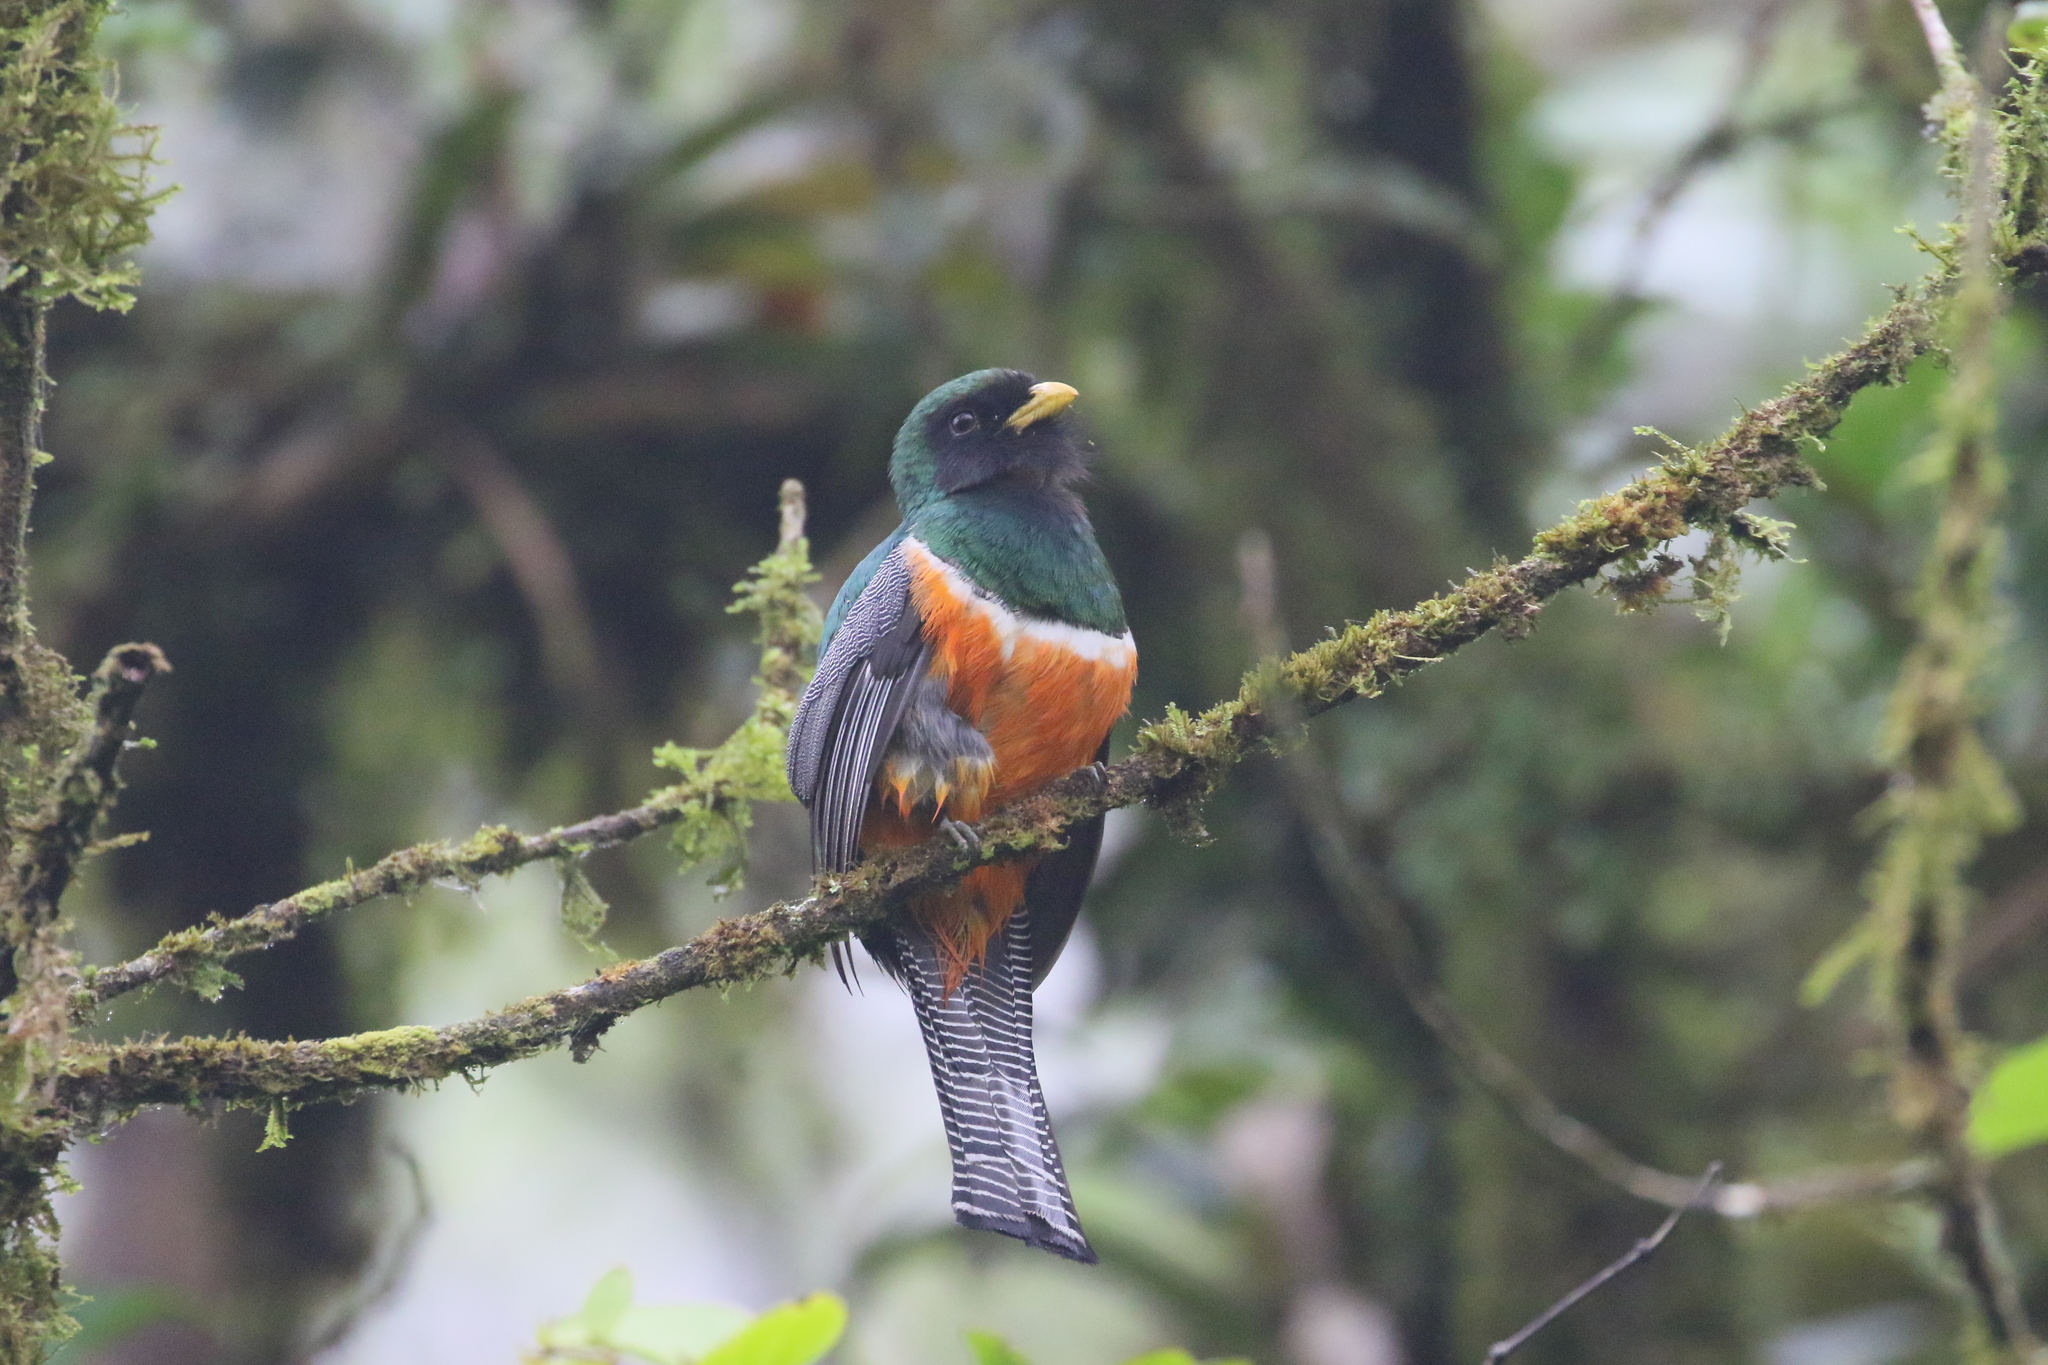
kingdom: Animalia
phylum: Chordata
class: Aves
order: Trogoniformes
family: Trogonidae
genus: Trogon
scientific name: Trogon collaris
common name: Collared trogon
